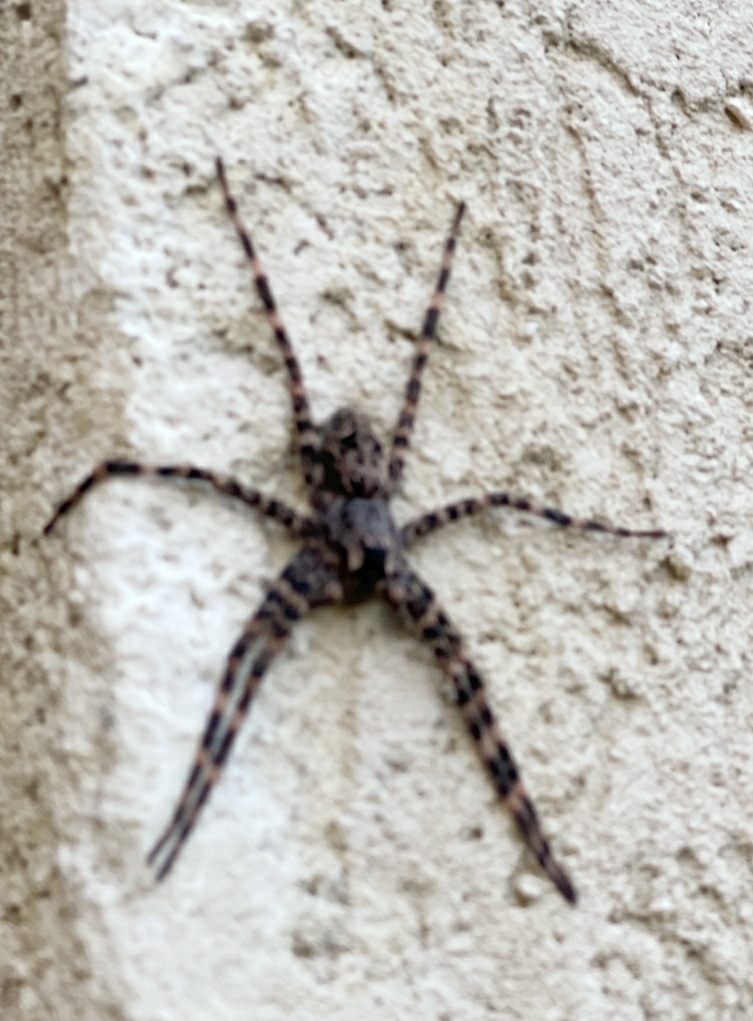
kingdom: Animalia
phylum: Arthropoda
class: Arachnida
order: Araneae
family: Pisauridae
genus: Dolomedes
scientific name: Dolomedes tenebrosus
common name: Dark fishing spider
